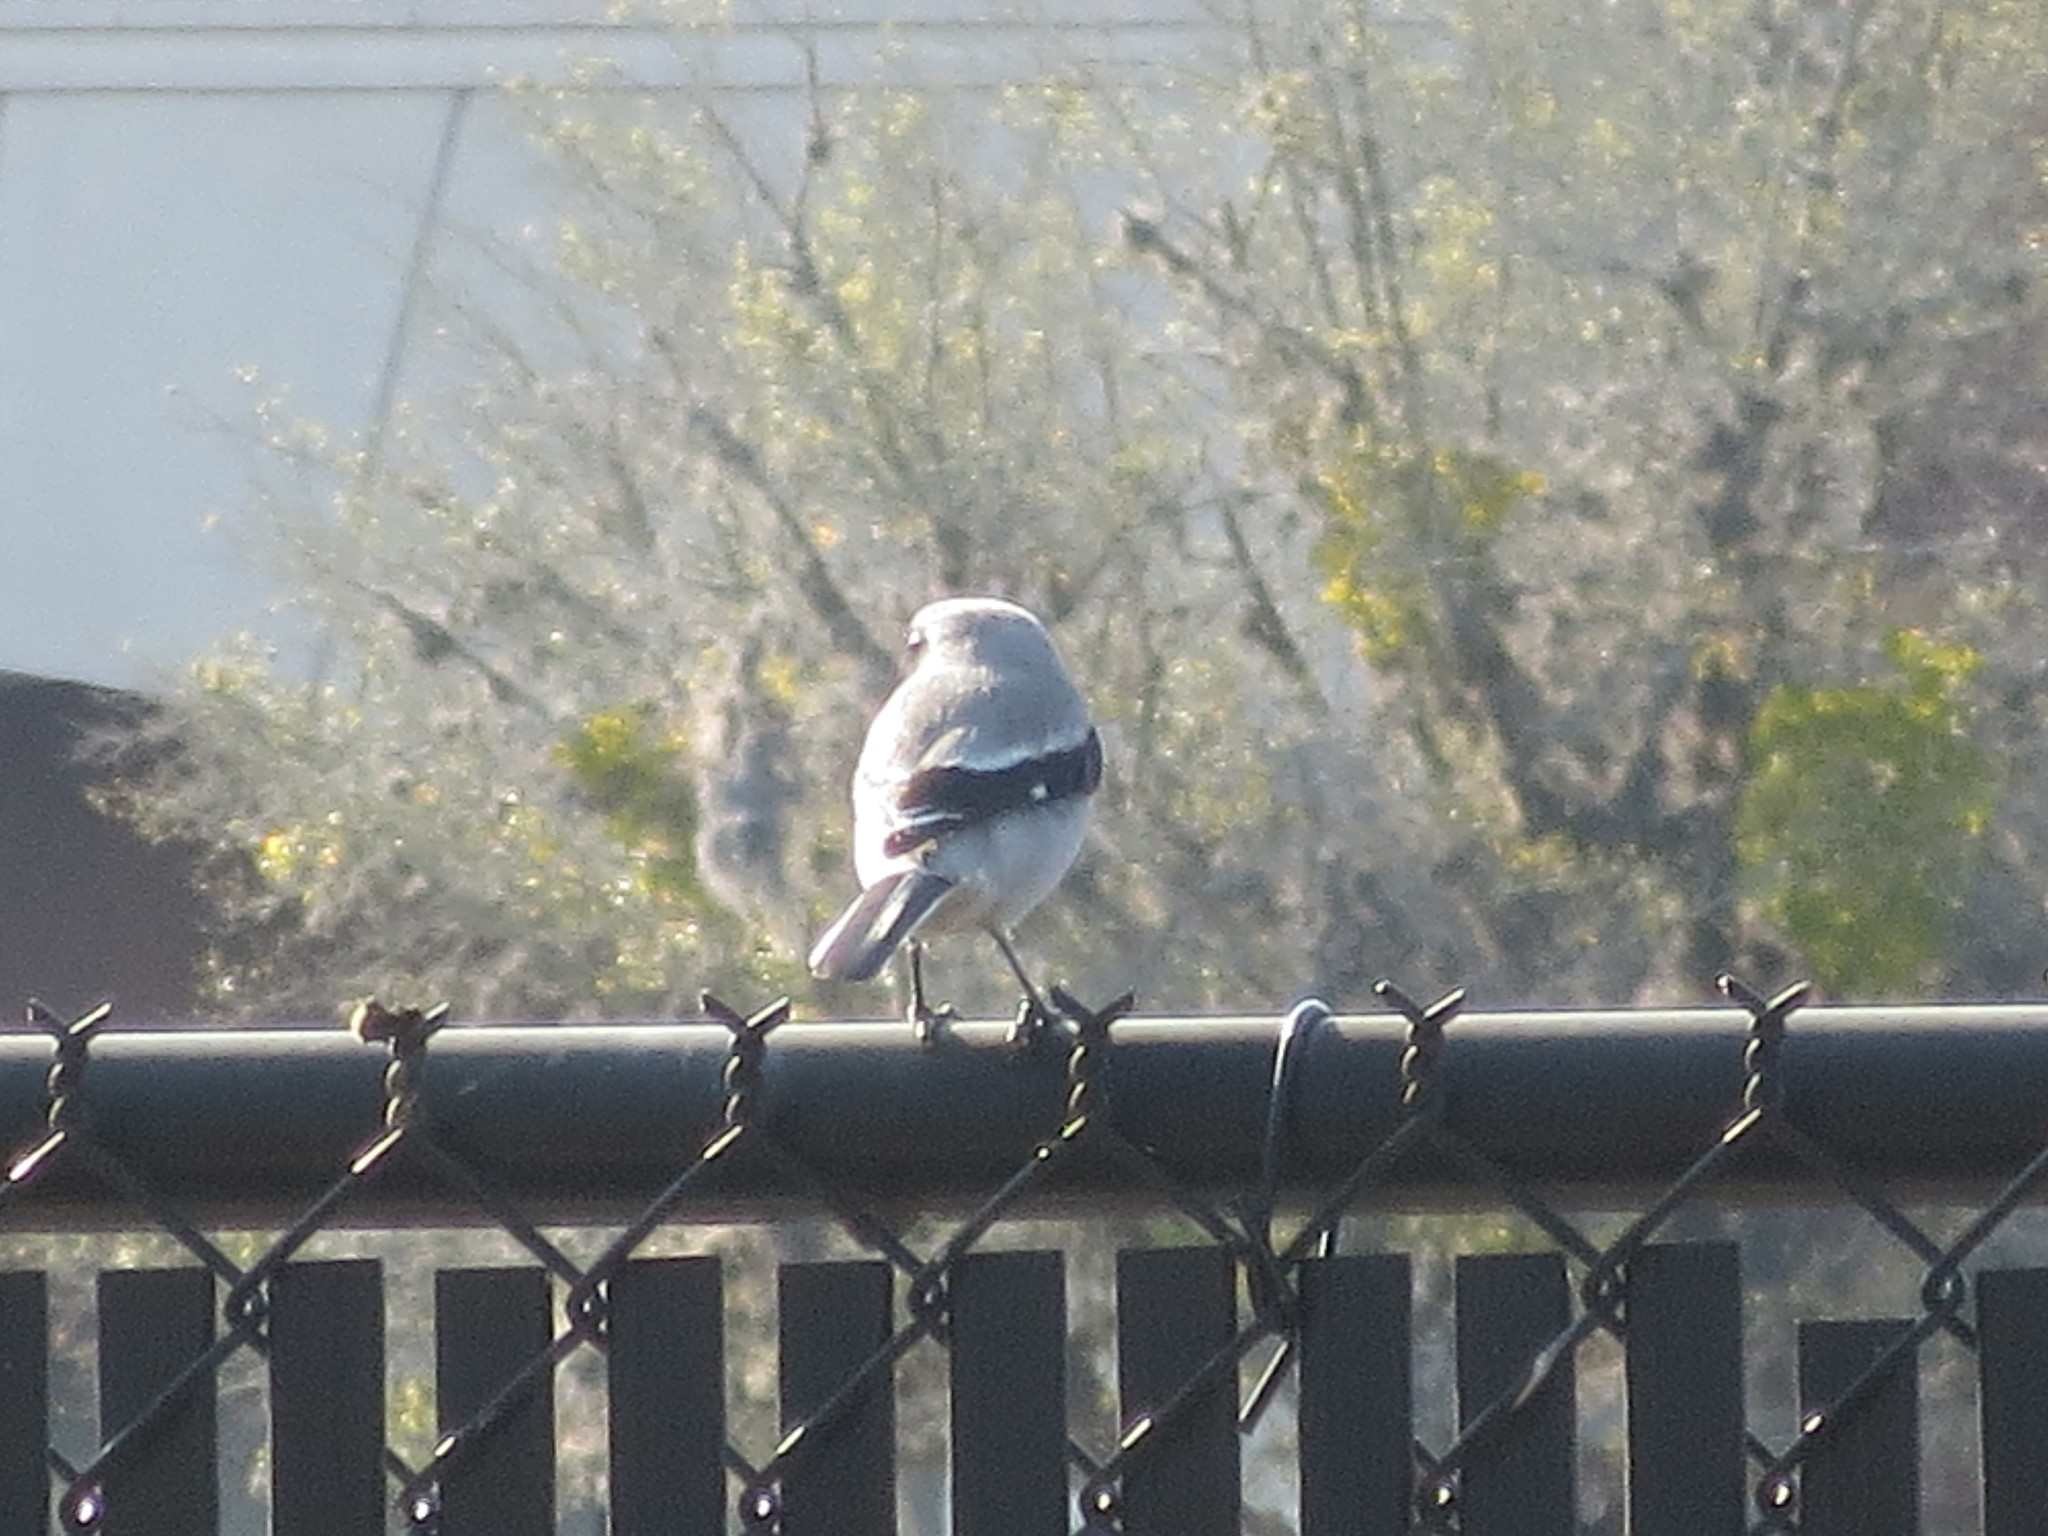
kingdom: Animalia
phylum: Chordata
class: Aves
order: Passeriformes
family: Laniidae
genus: Lanius
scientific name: Lanius ludovicianus
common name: Loggerhead shrike
